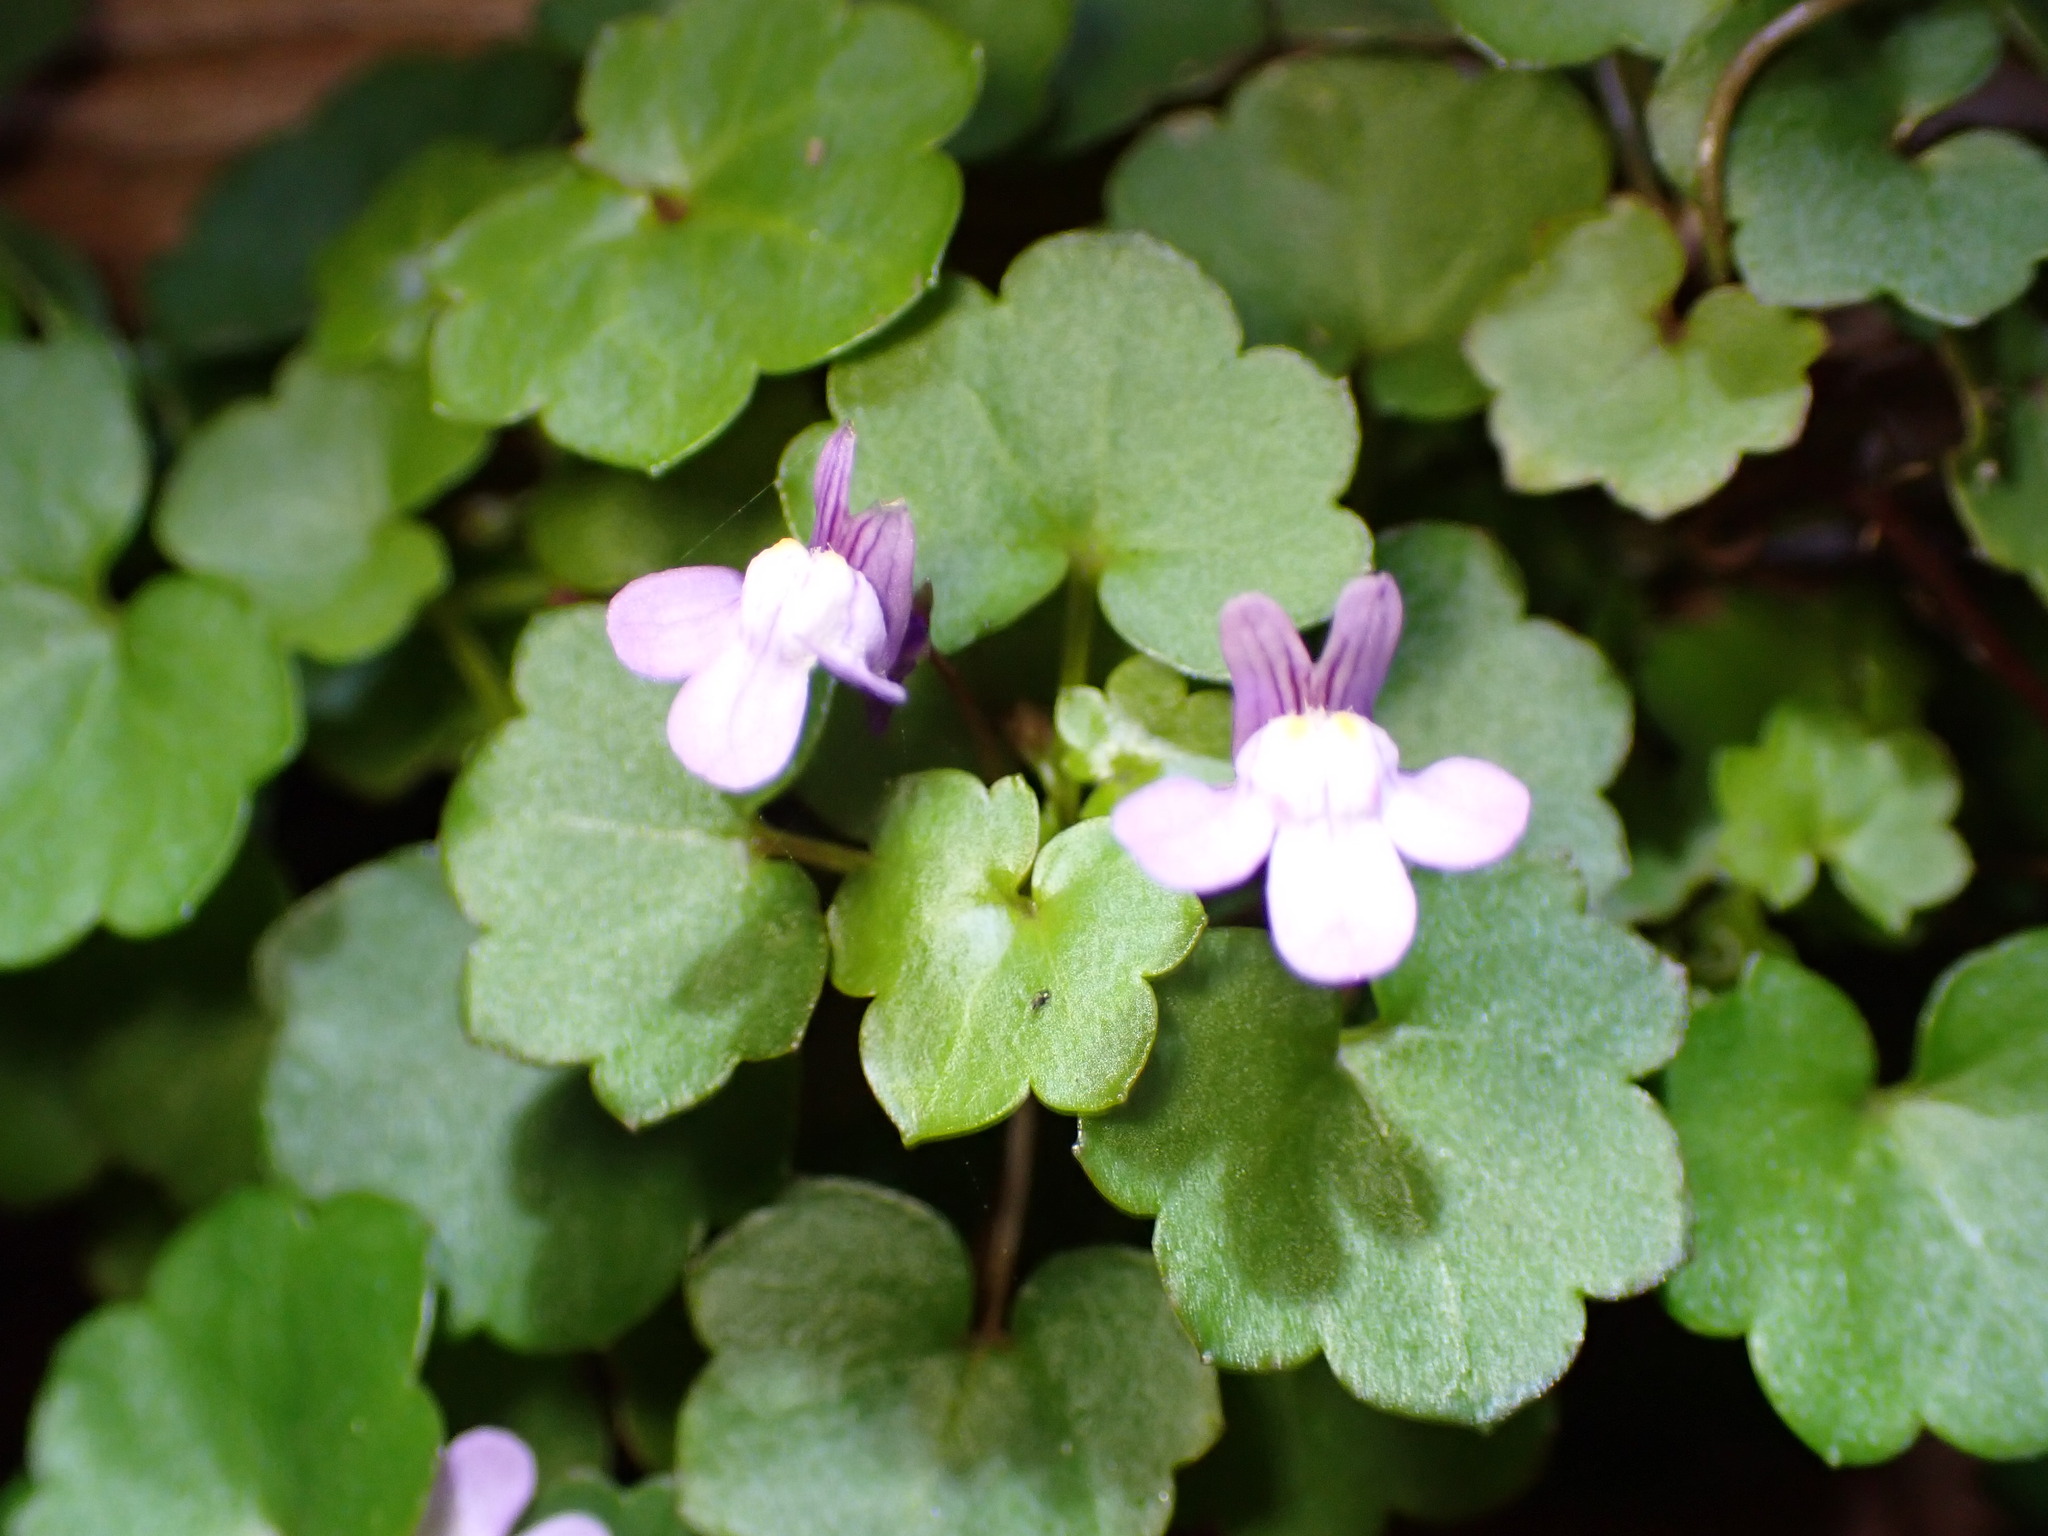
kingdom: Plantae
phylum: Tracheophyta
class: Magnoliopsida
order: Lamiales
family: Plantaginaceae
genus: Cymbalaria
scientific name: Cymbalaria muralis
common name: Ivy-leaved toadflax
